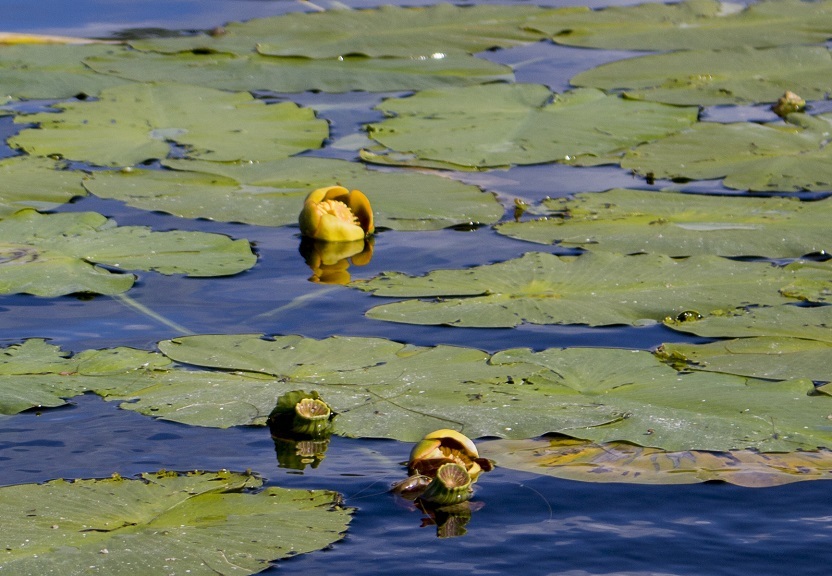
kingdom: Plantae
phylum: Tracheophyta
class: Magnoliopsida
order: Nymphaeales
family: Nymphaeaceae
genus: Nuphar
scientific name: Nuphar variegata
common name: Beaver-root
